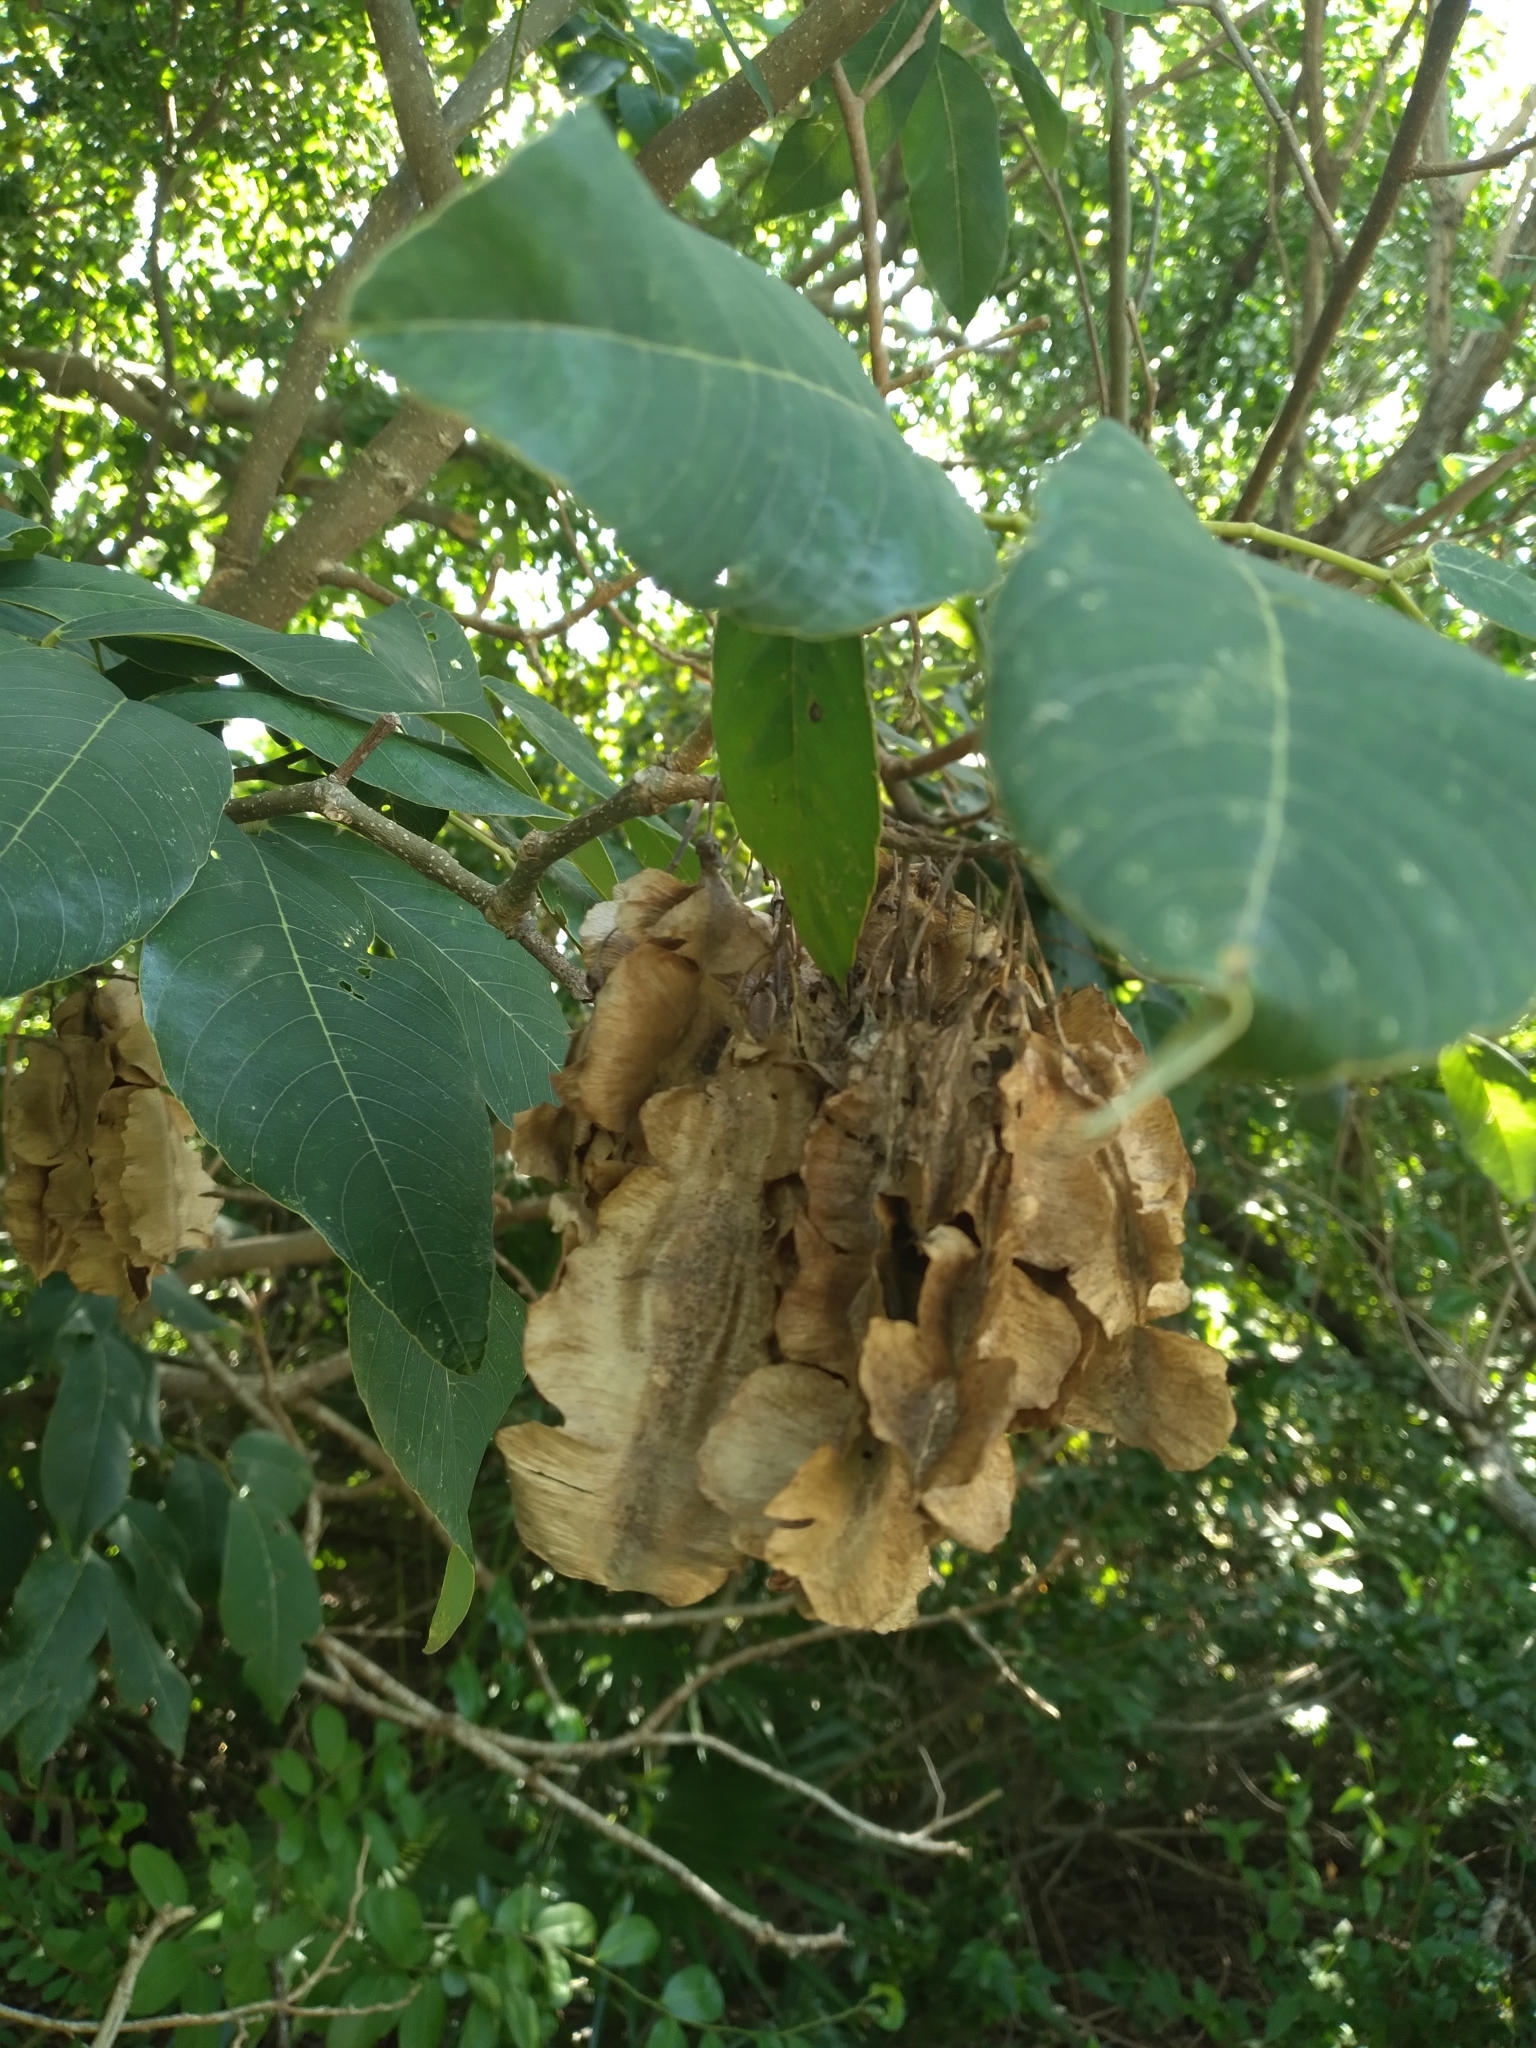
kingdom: Plantae
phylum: Tracheophyta
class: Magnoliopsida
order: Fabales
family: Fabaceae
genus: Piscidia
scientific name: Piscidia piscipula
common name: Florida fishpoison tree
